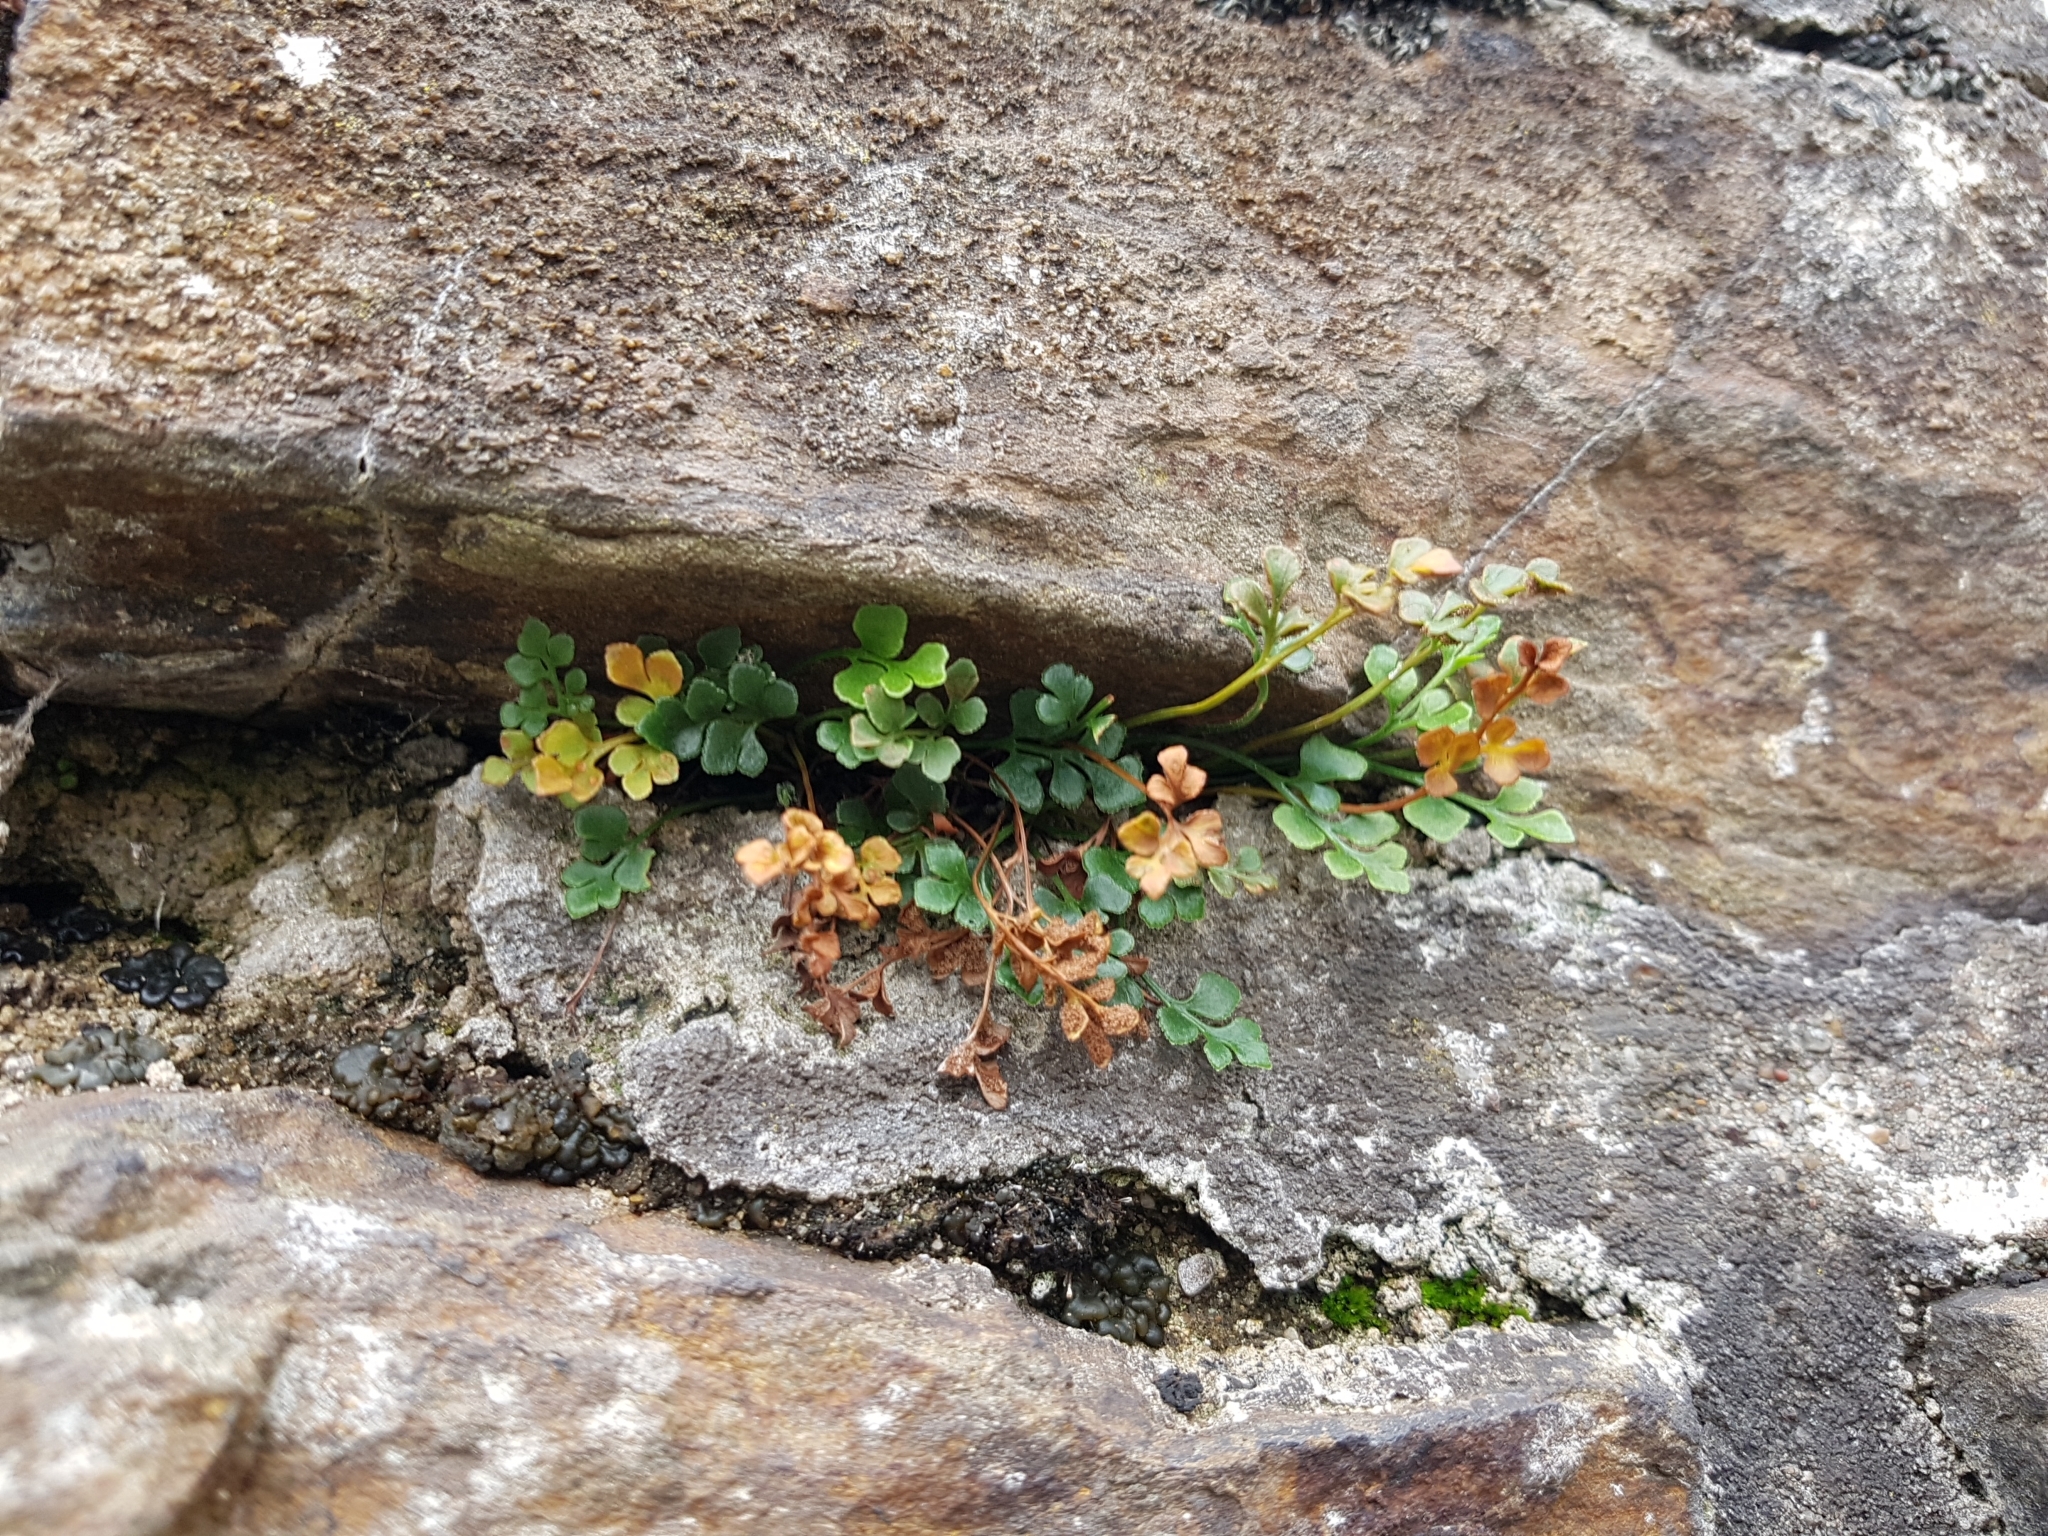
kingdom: Plantae
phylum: Tracheophyta
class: Polypodiopsida
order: Polypodiales
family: Aspleniaceae
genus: Asplenium
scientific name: Asplenium ruta-muraria
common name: Wall-rue
